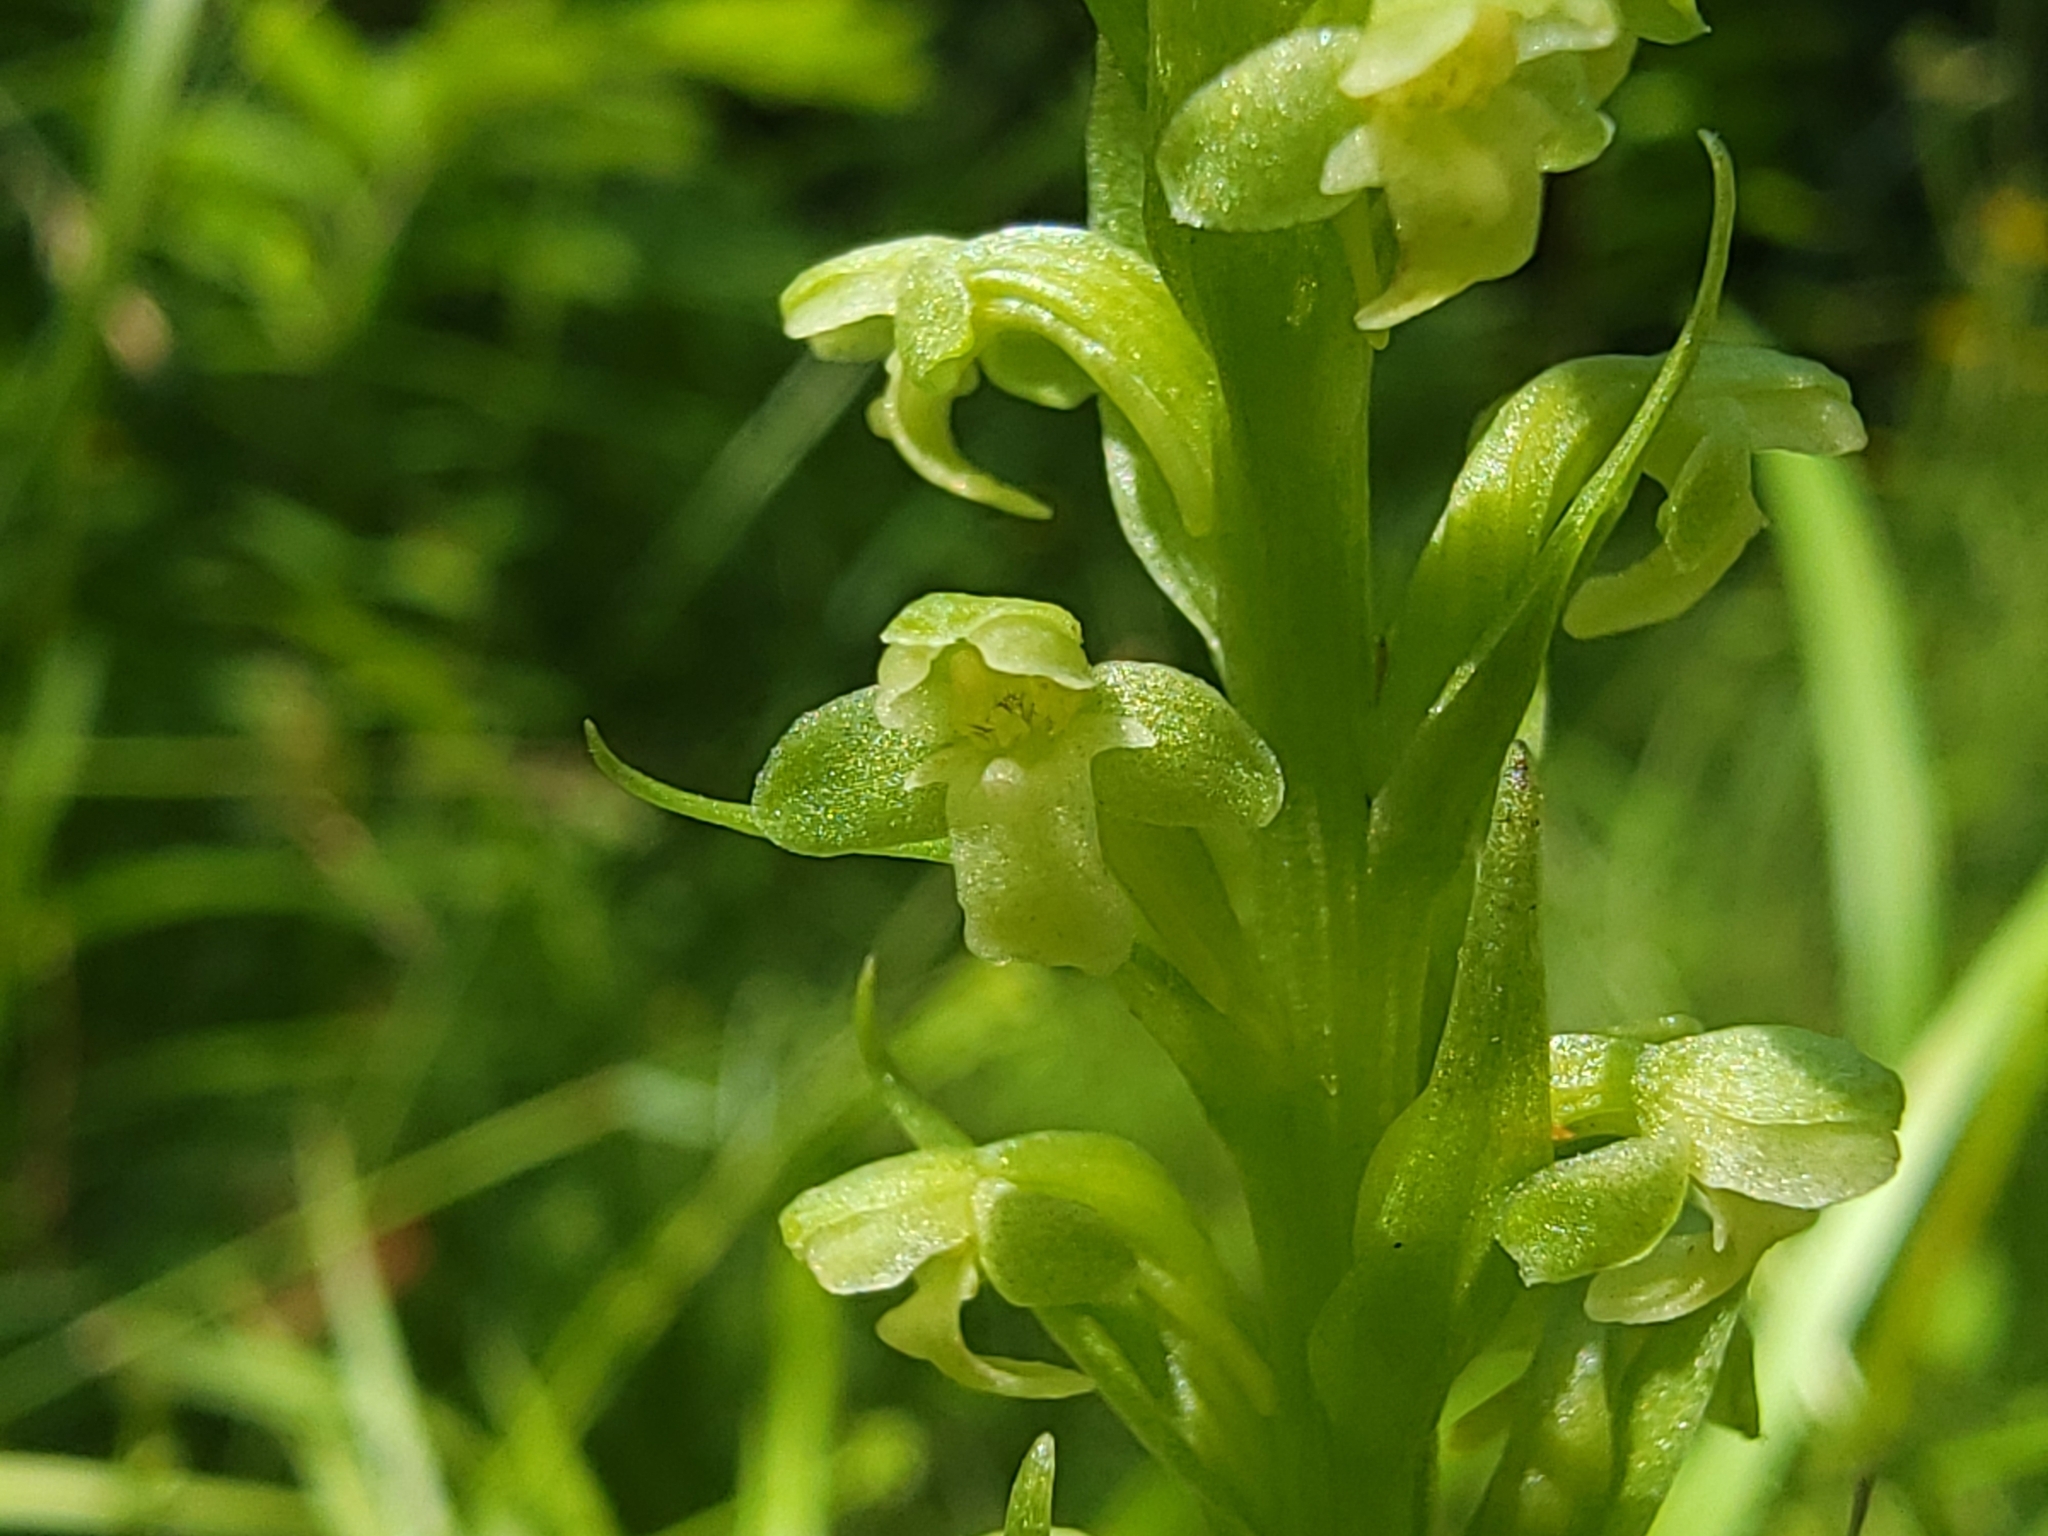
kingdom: Plantae
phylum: Tracheophyta
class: Liliopsida
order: Asparagales
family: Orchidaceae
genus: Platanthera
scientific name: Platanthera flava
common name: Gypsy-spikes
